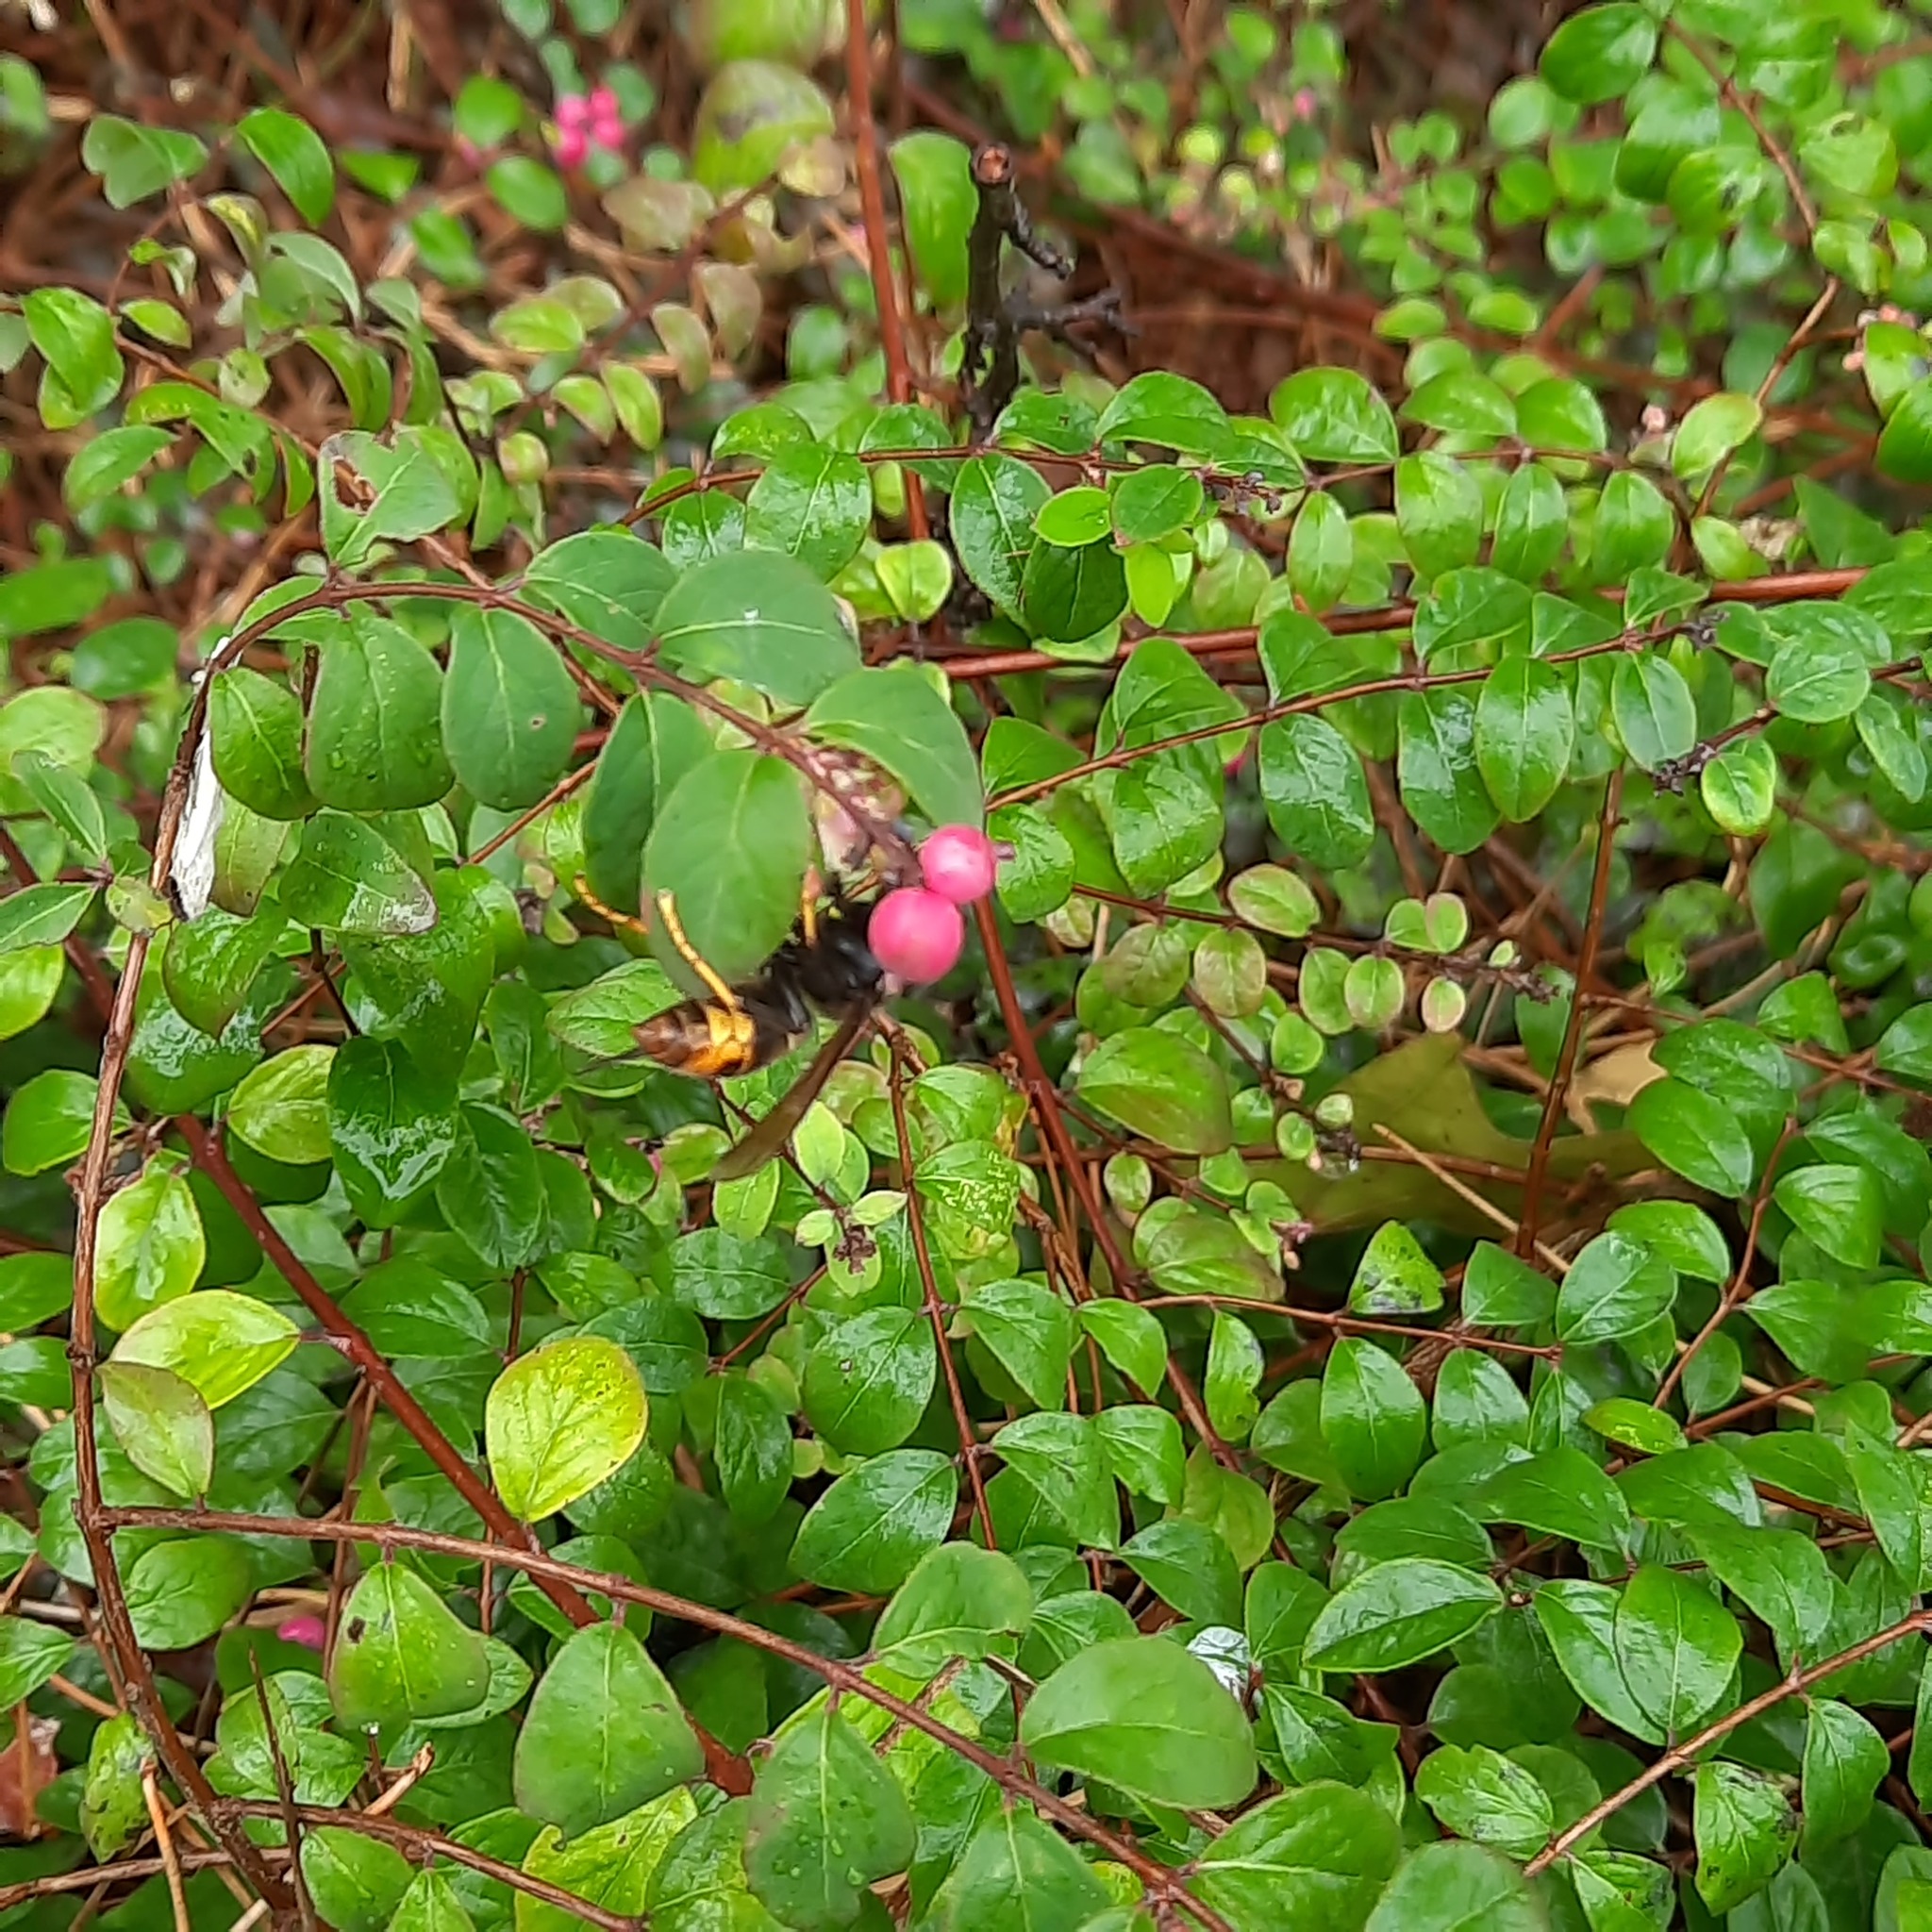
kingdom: Animalia
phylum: Arthropoda
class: Insecta
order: Hymenoptera
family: Vespidae
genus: Vespa
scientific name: Vespa velutina
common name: Asian hornet
